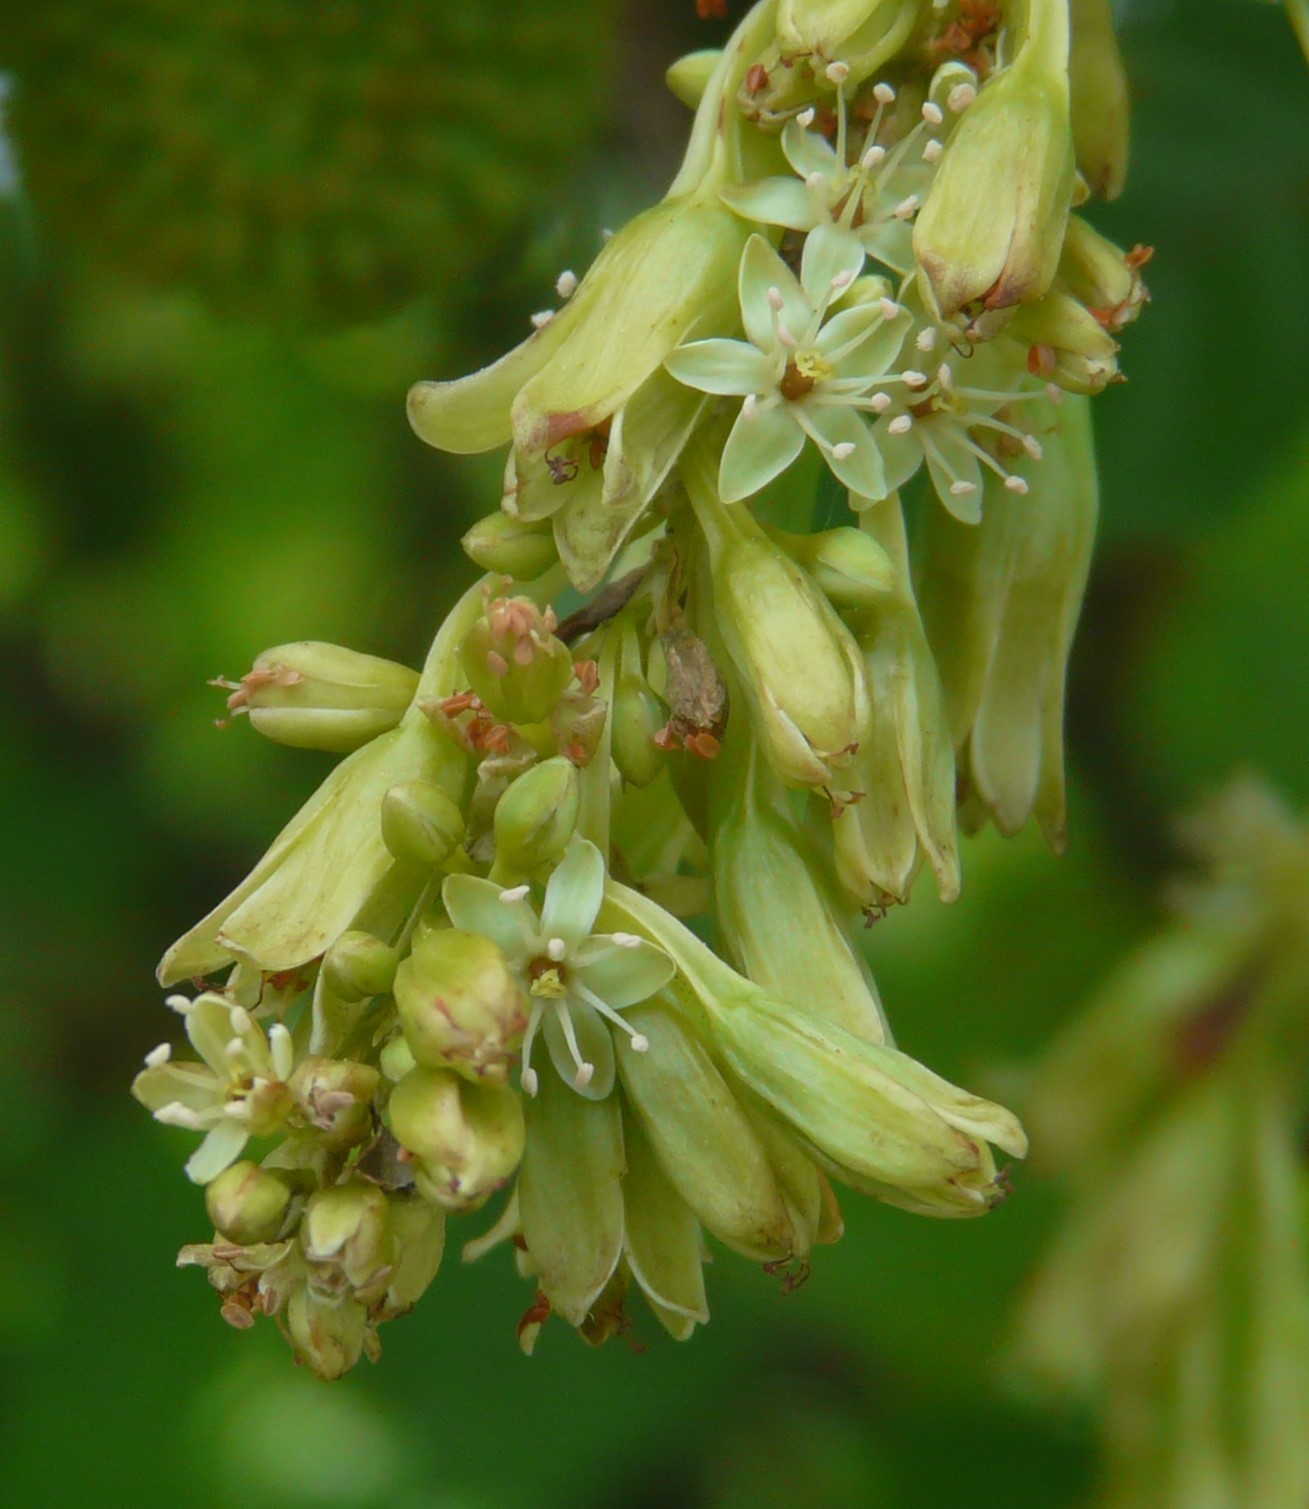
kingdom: Plantae
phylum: Tracheophyta
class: Magnoliopsida
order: Caryophyllales
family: Polygonaceae
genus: Brunnichia
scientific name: Brunnichia ovata
